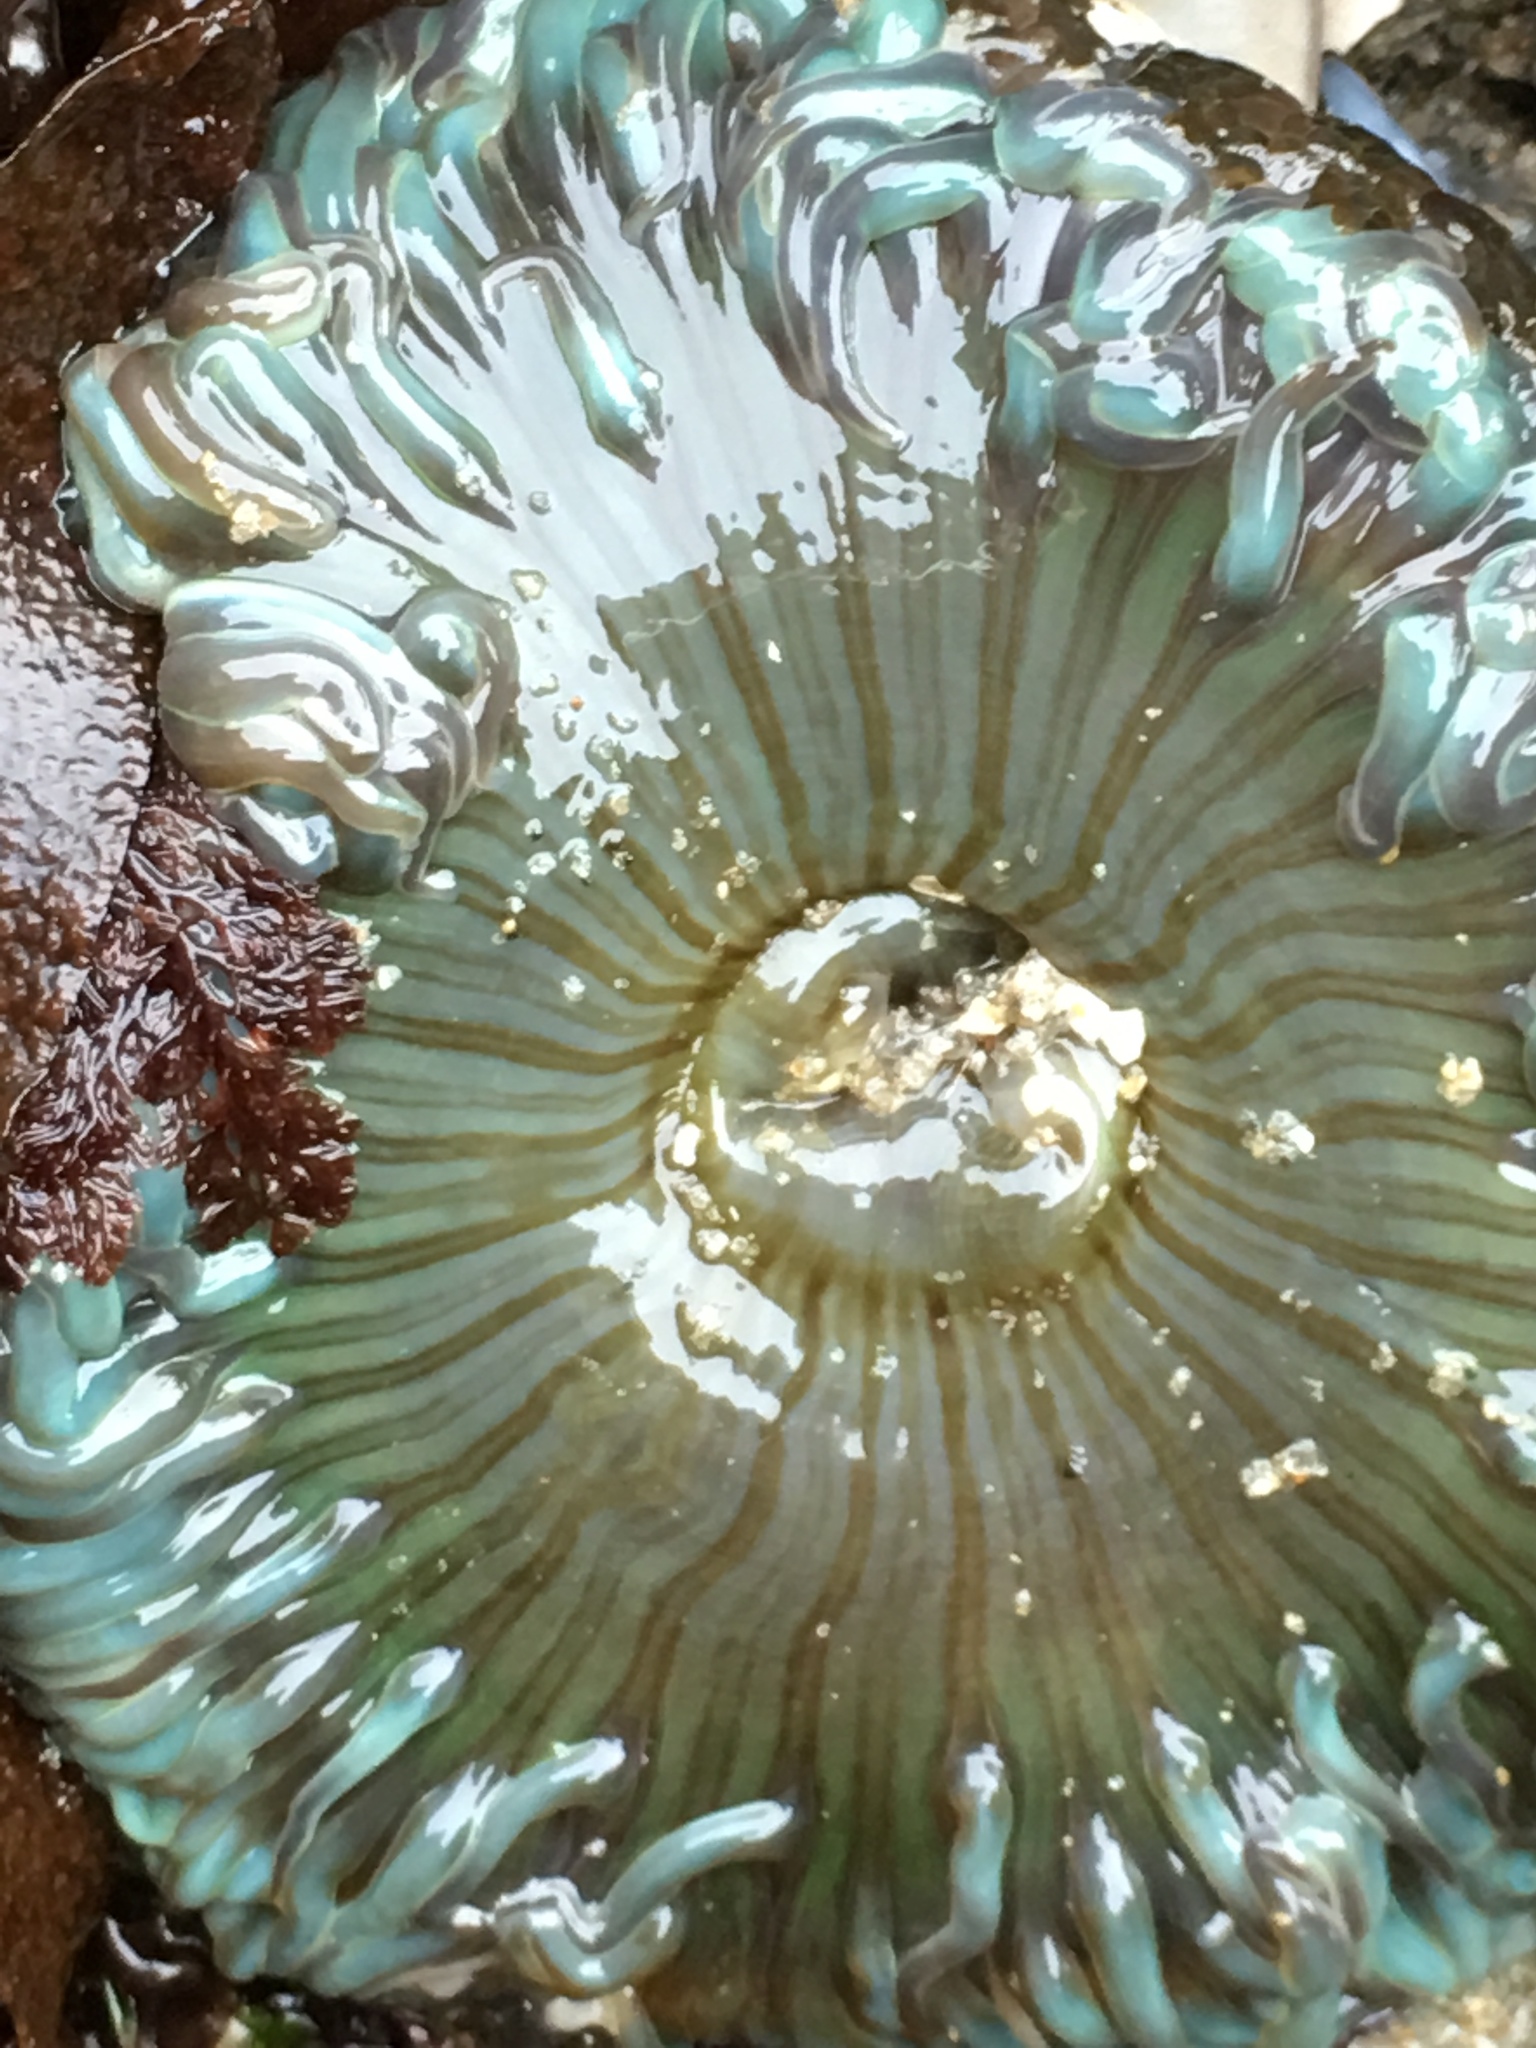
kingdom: Animalia
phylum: Cnidaria
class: Anthozoa
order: Actiniaria
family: Actiniidae
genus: Anthopleura
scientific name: Anthopleura sola
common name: Sun anemone
